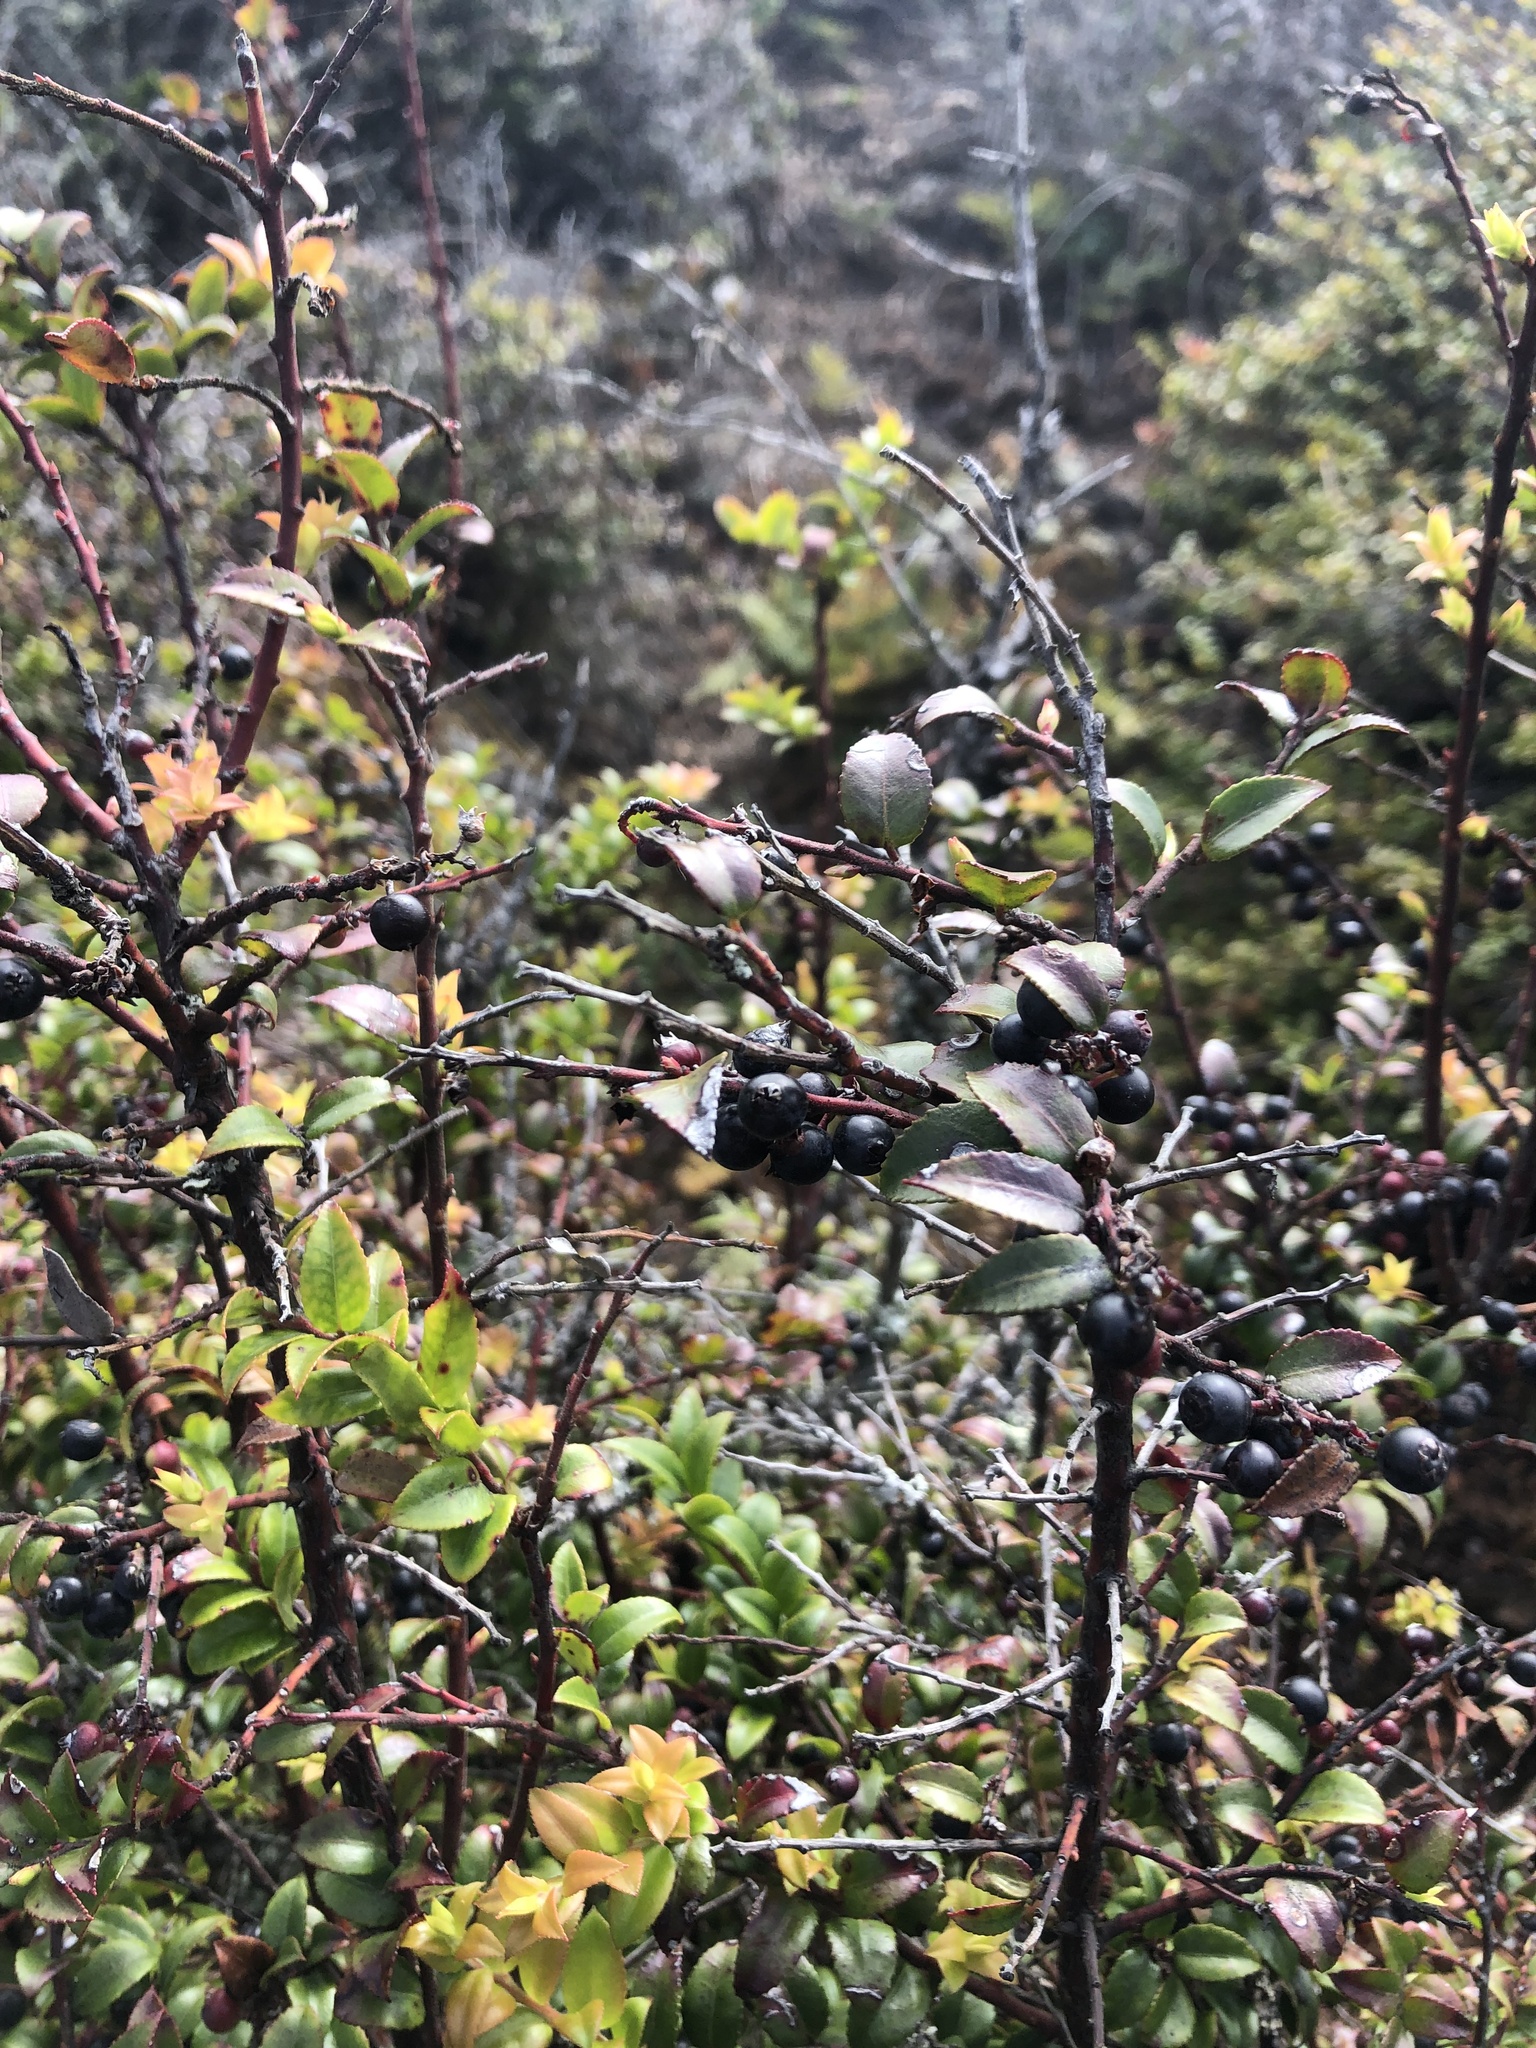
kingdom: Plantae
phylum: Tracheophyta
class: Magnoliopsida
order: Ericales
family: Ericaceae
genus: Vaccinium
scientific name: Vaccinium ovatum
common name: California-huckleberry
